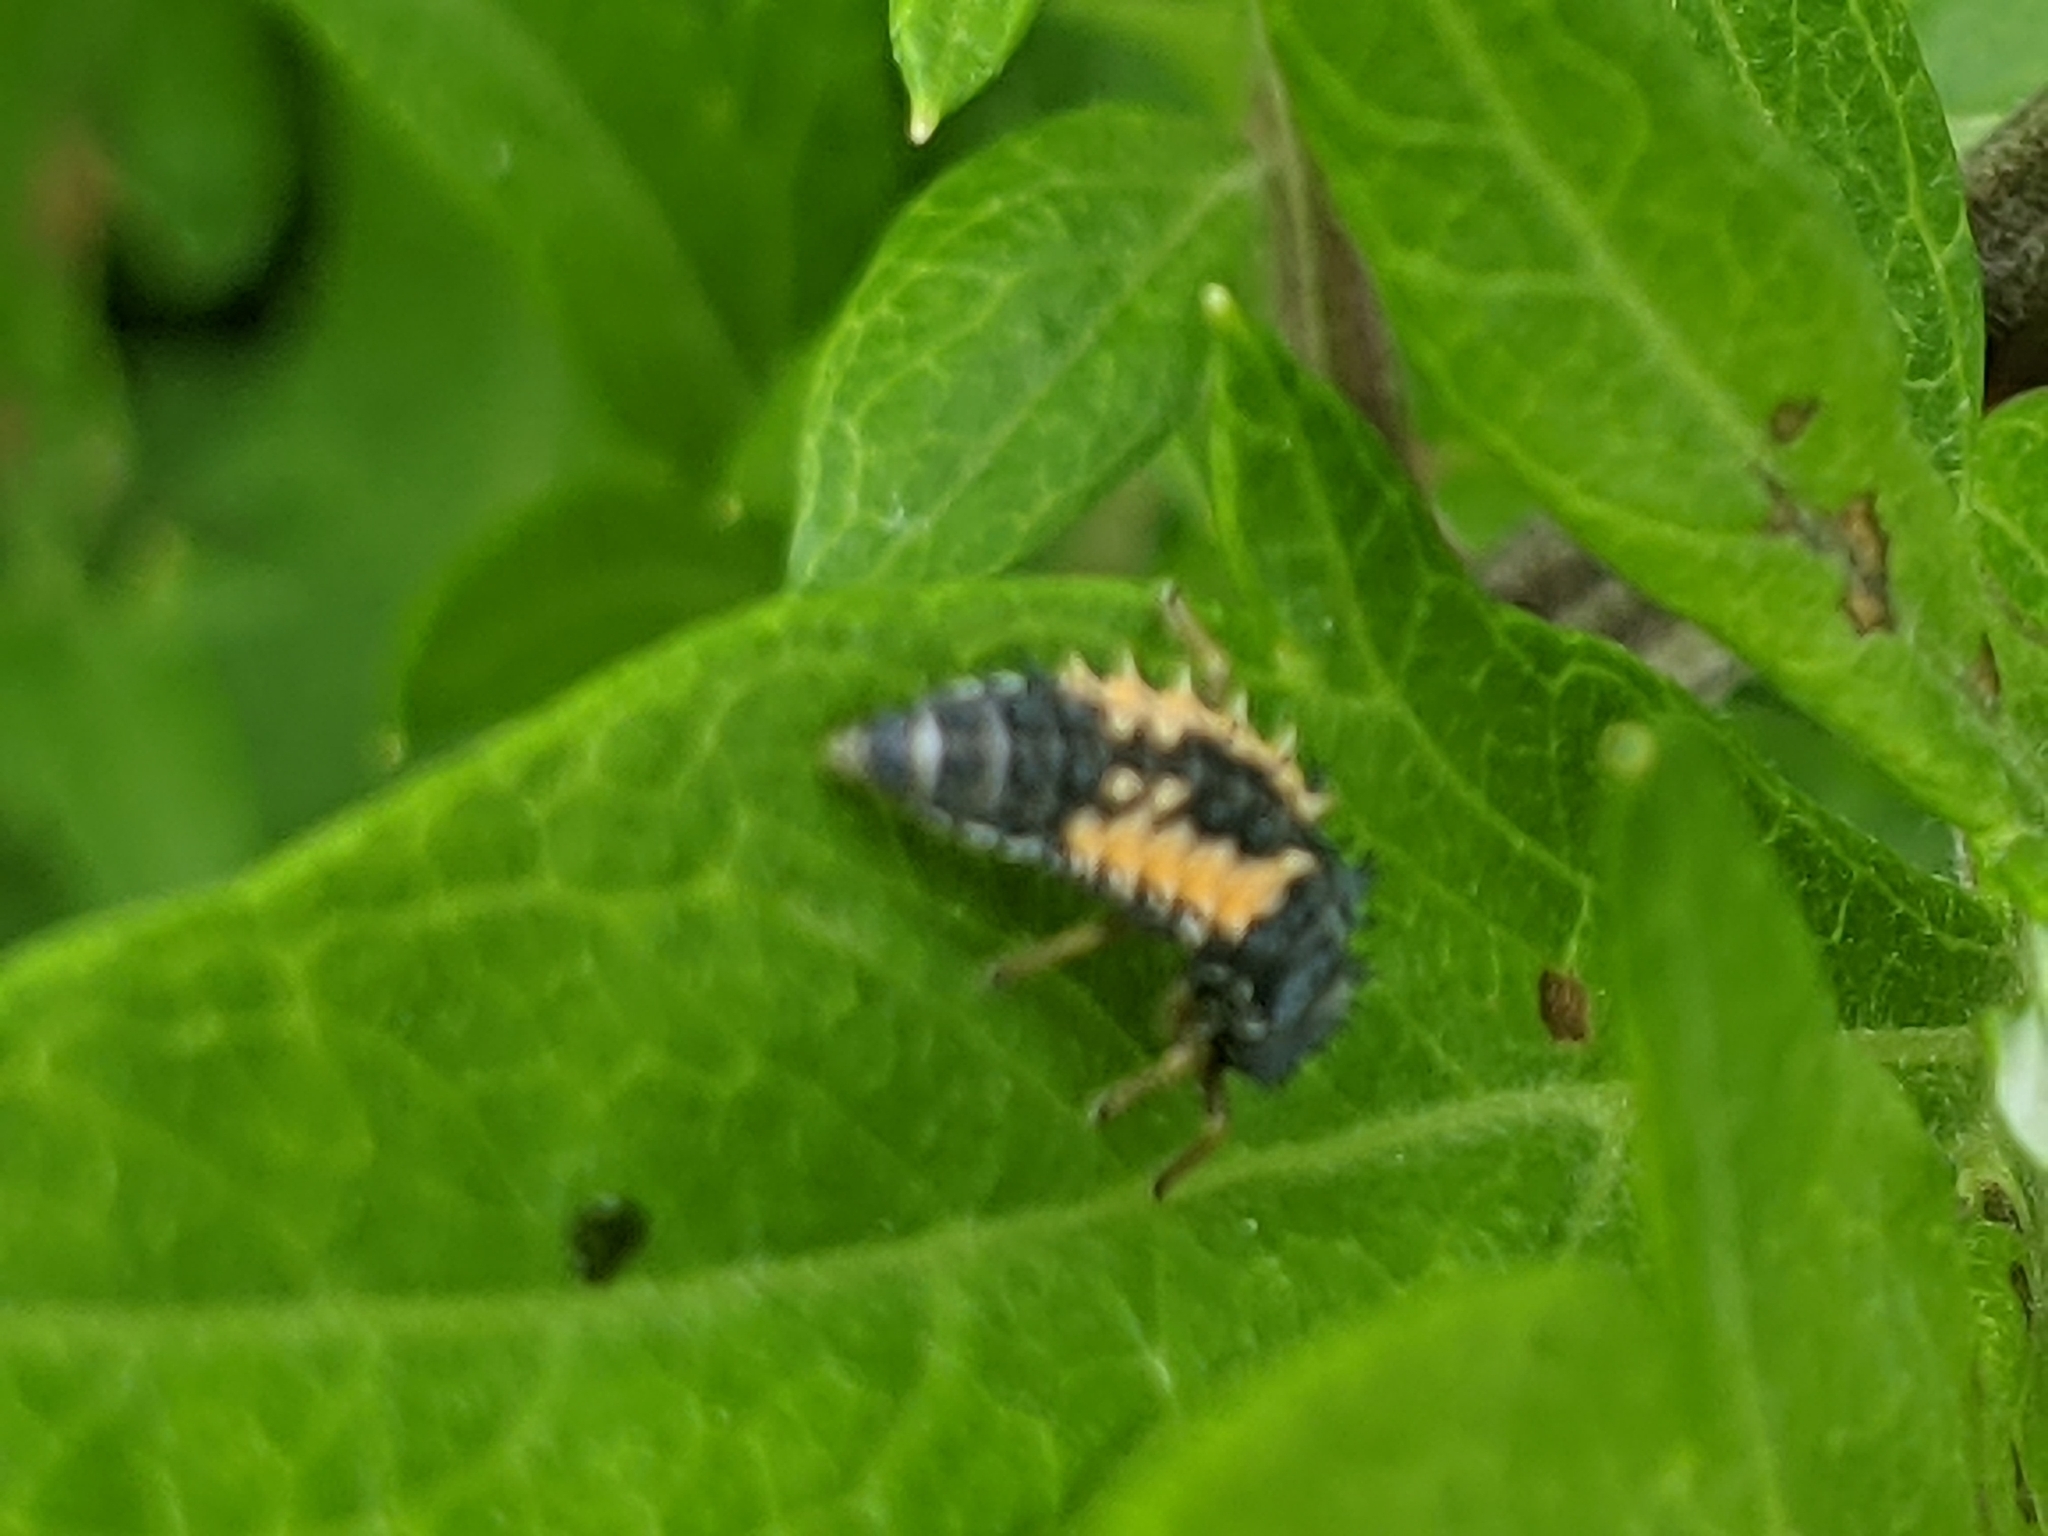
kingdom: Animalia
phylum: Arthropoda
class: Insecta
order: Coleoptera
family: Coccinellidae
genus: Harmonia
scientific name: Harmonia axyridis
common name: Harlequin ladybird
